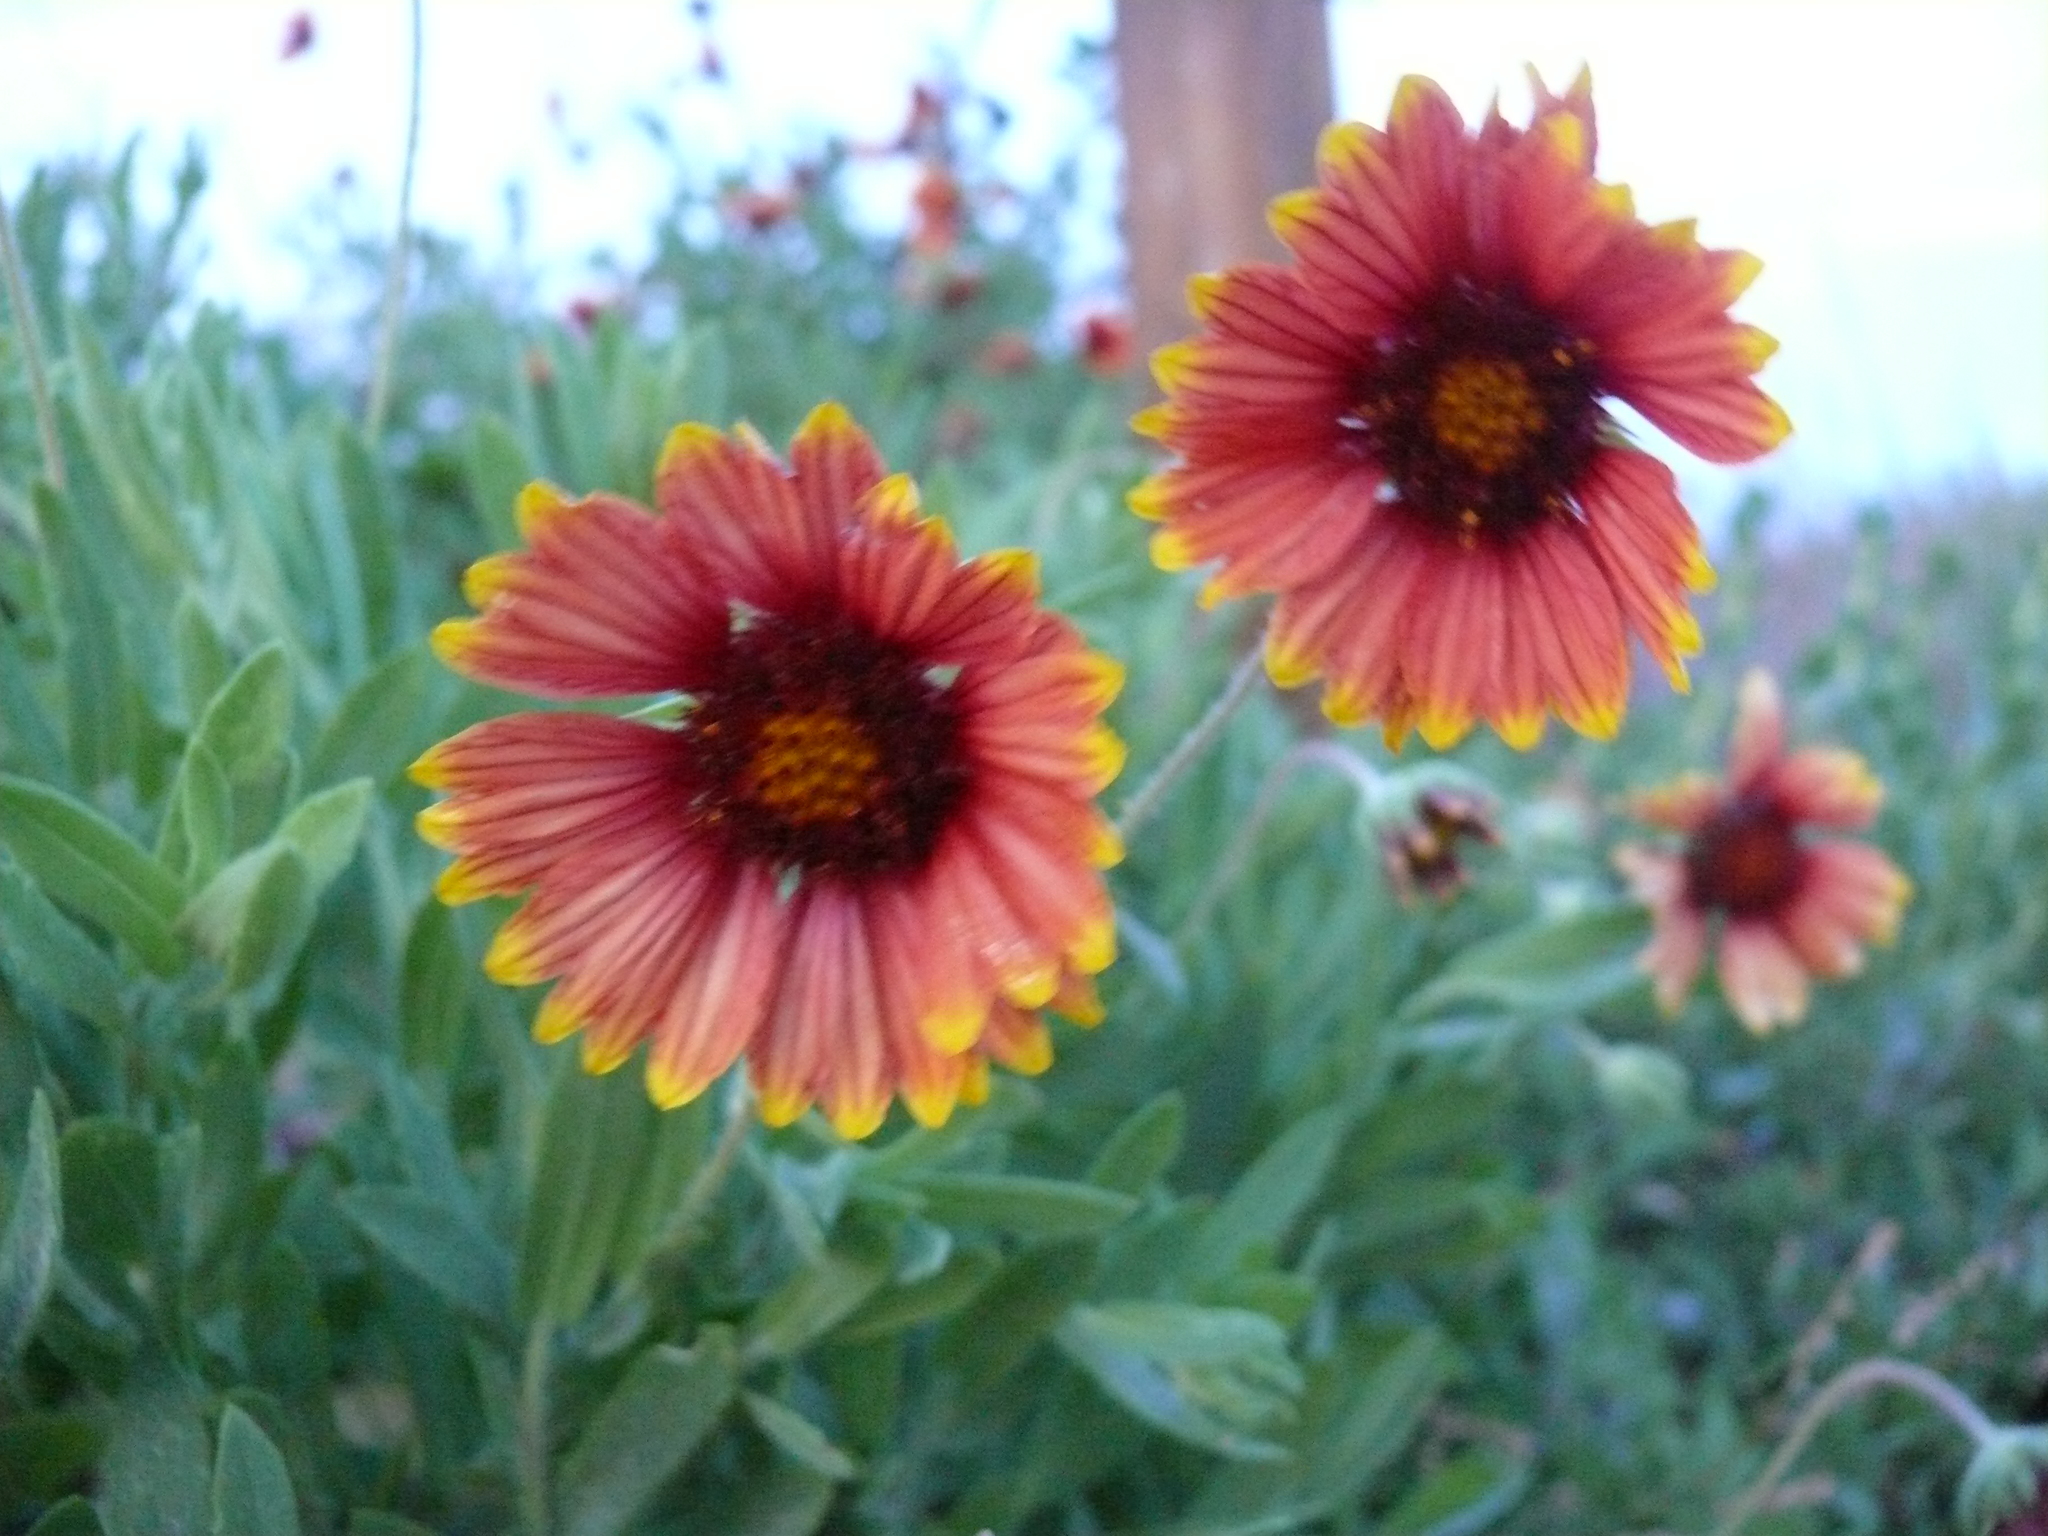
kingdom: Plantae
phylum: Tracheophyta
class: Magnoliopsida
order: Asterales
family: Asteraceae
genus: Gaillardia
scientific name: Gaillardia pulchella
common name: Firewheel
